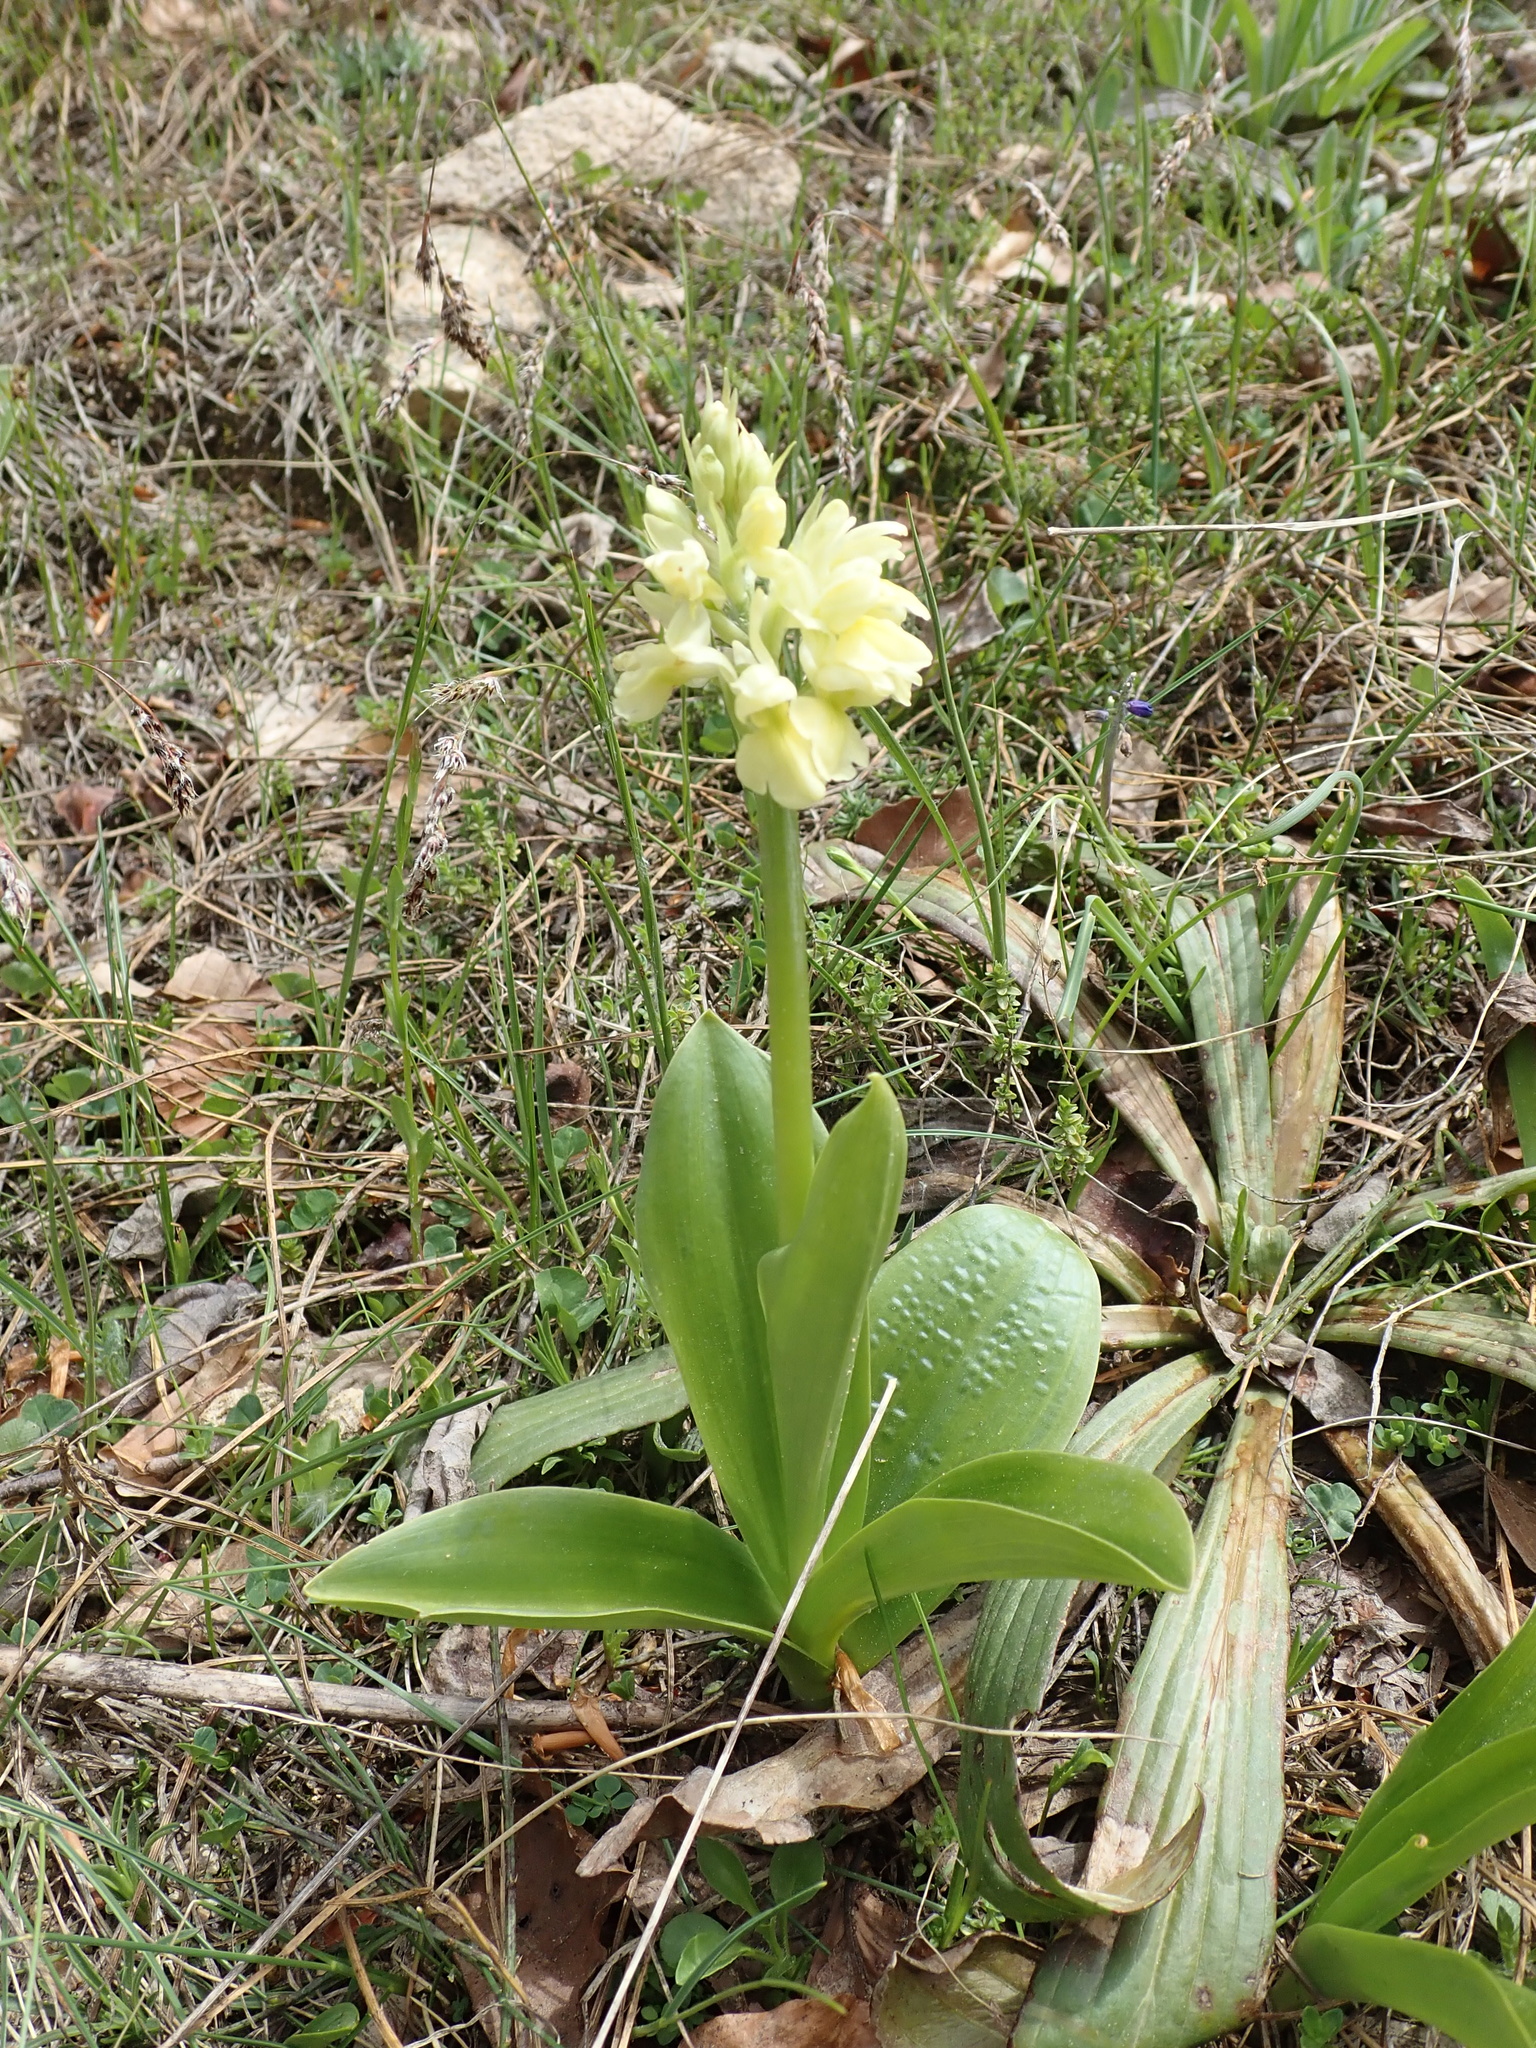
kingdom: Plantae
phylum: Tracheophyta
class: Liliopsida
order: Asparagales
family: Orchidaceae
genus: Orchis
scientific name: Orchis pallens
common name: Pale-flowered orchid
